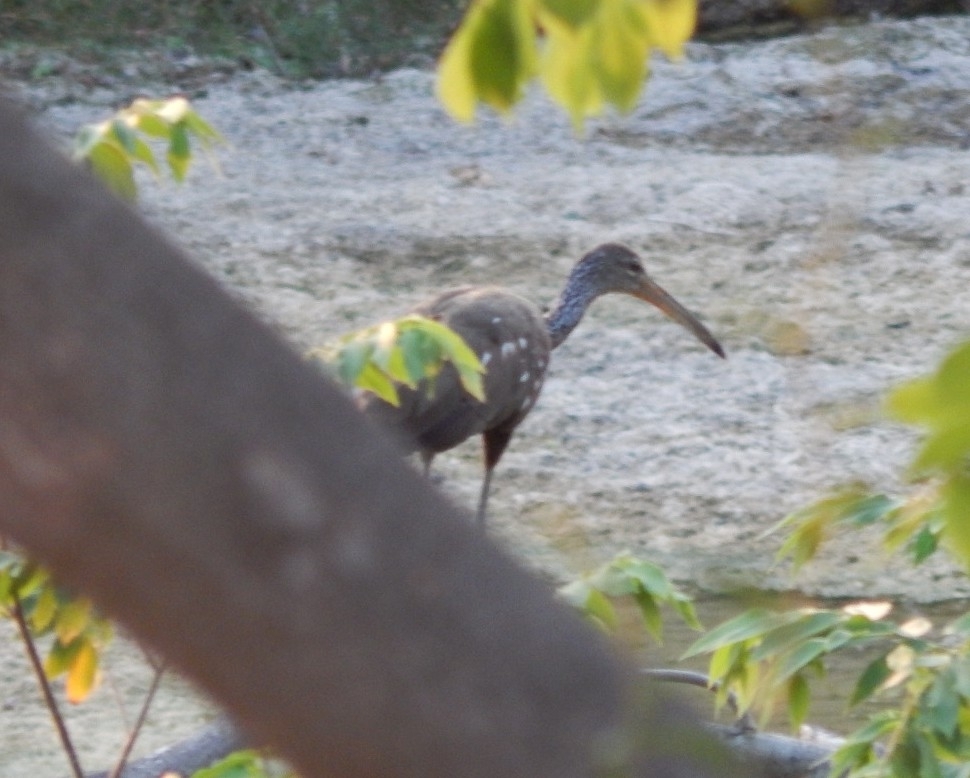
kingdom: Animalia
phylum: Chordata
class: Aves
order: Gruiformes
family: Aramidae
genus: Aramus
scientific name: Aramus guarauna
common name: Limpkin
